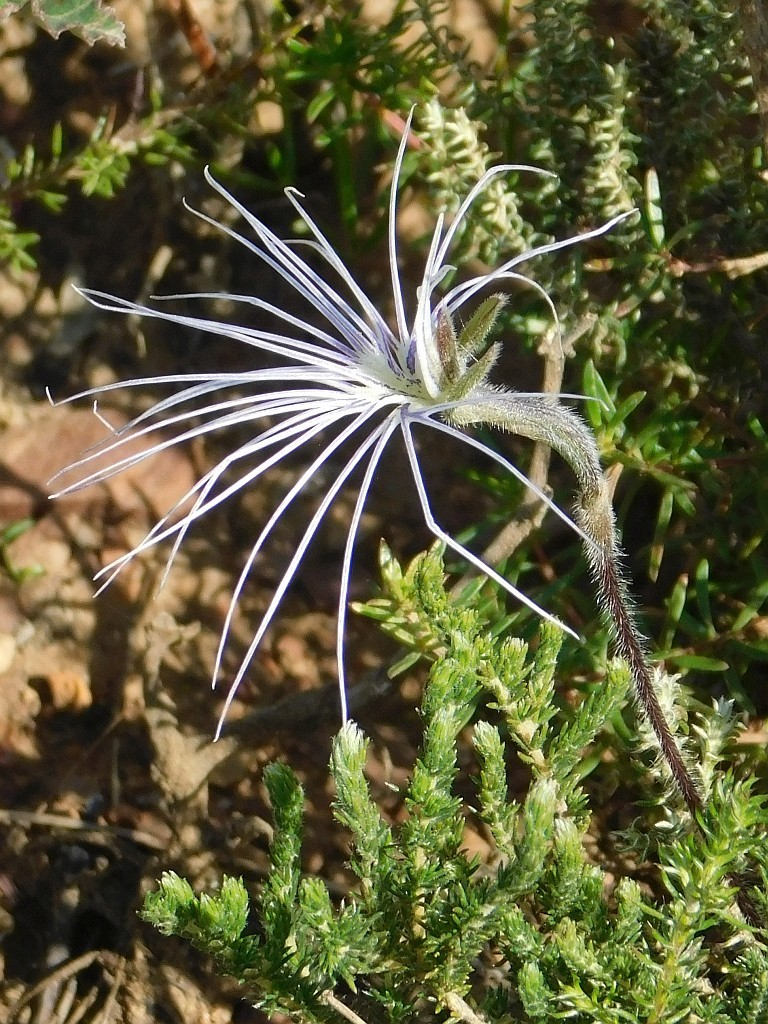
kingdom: Plantae
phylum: Tracheophyta
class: Liliopsida
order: Asparagales
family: Orchidaceae
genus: Holothrix
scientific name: Holothrix burmanniana
